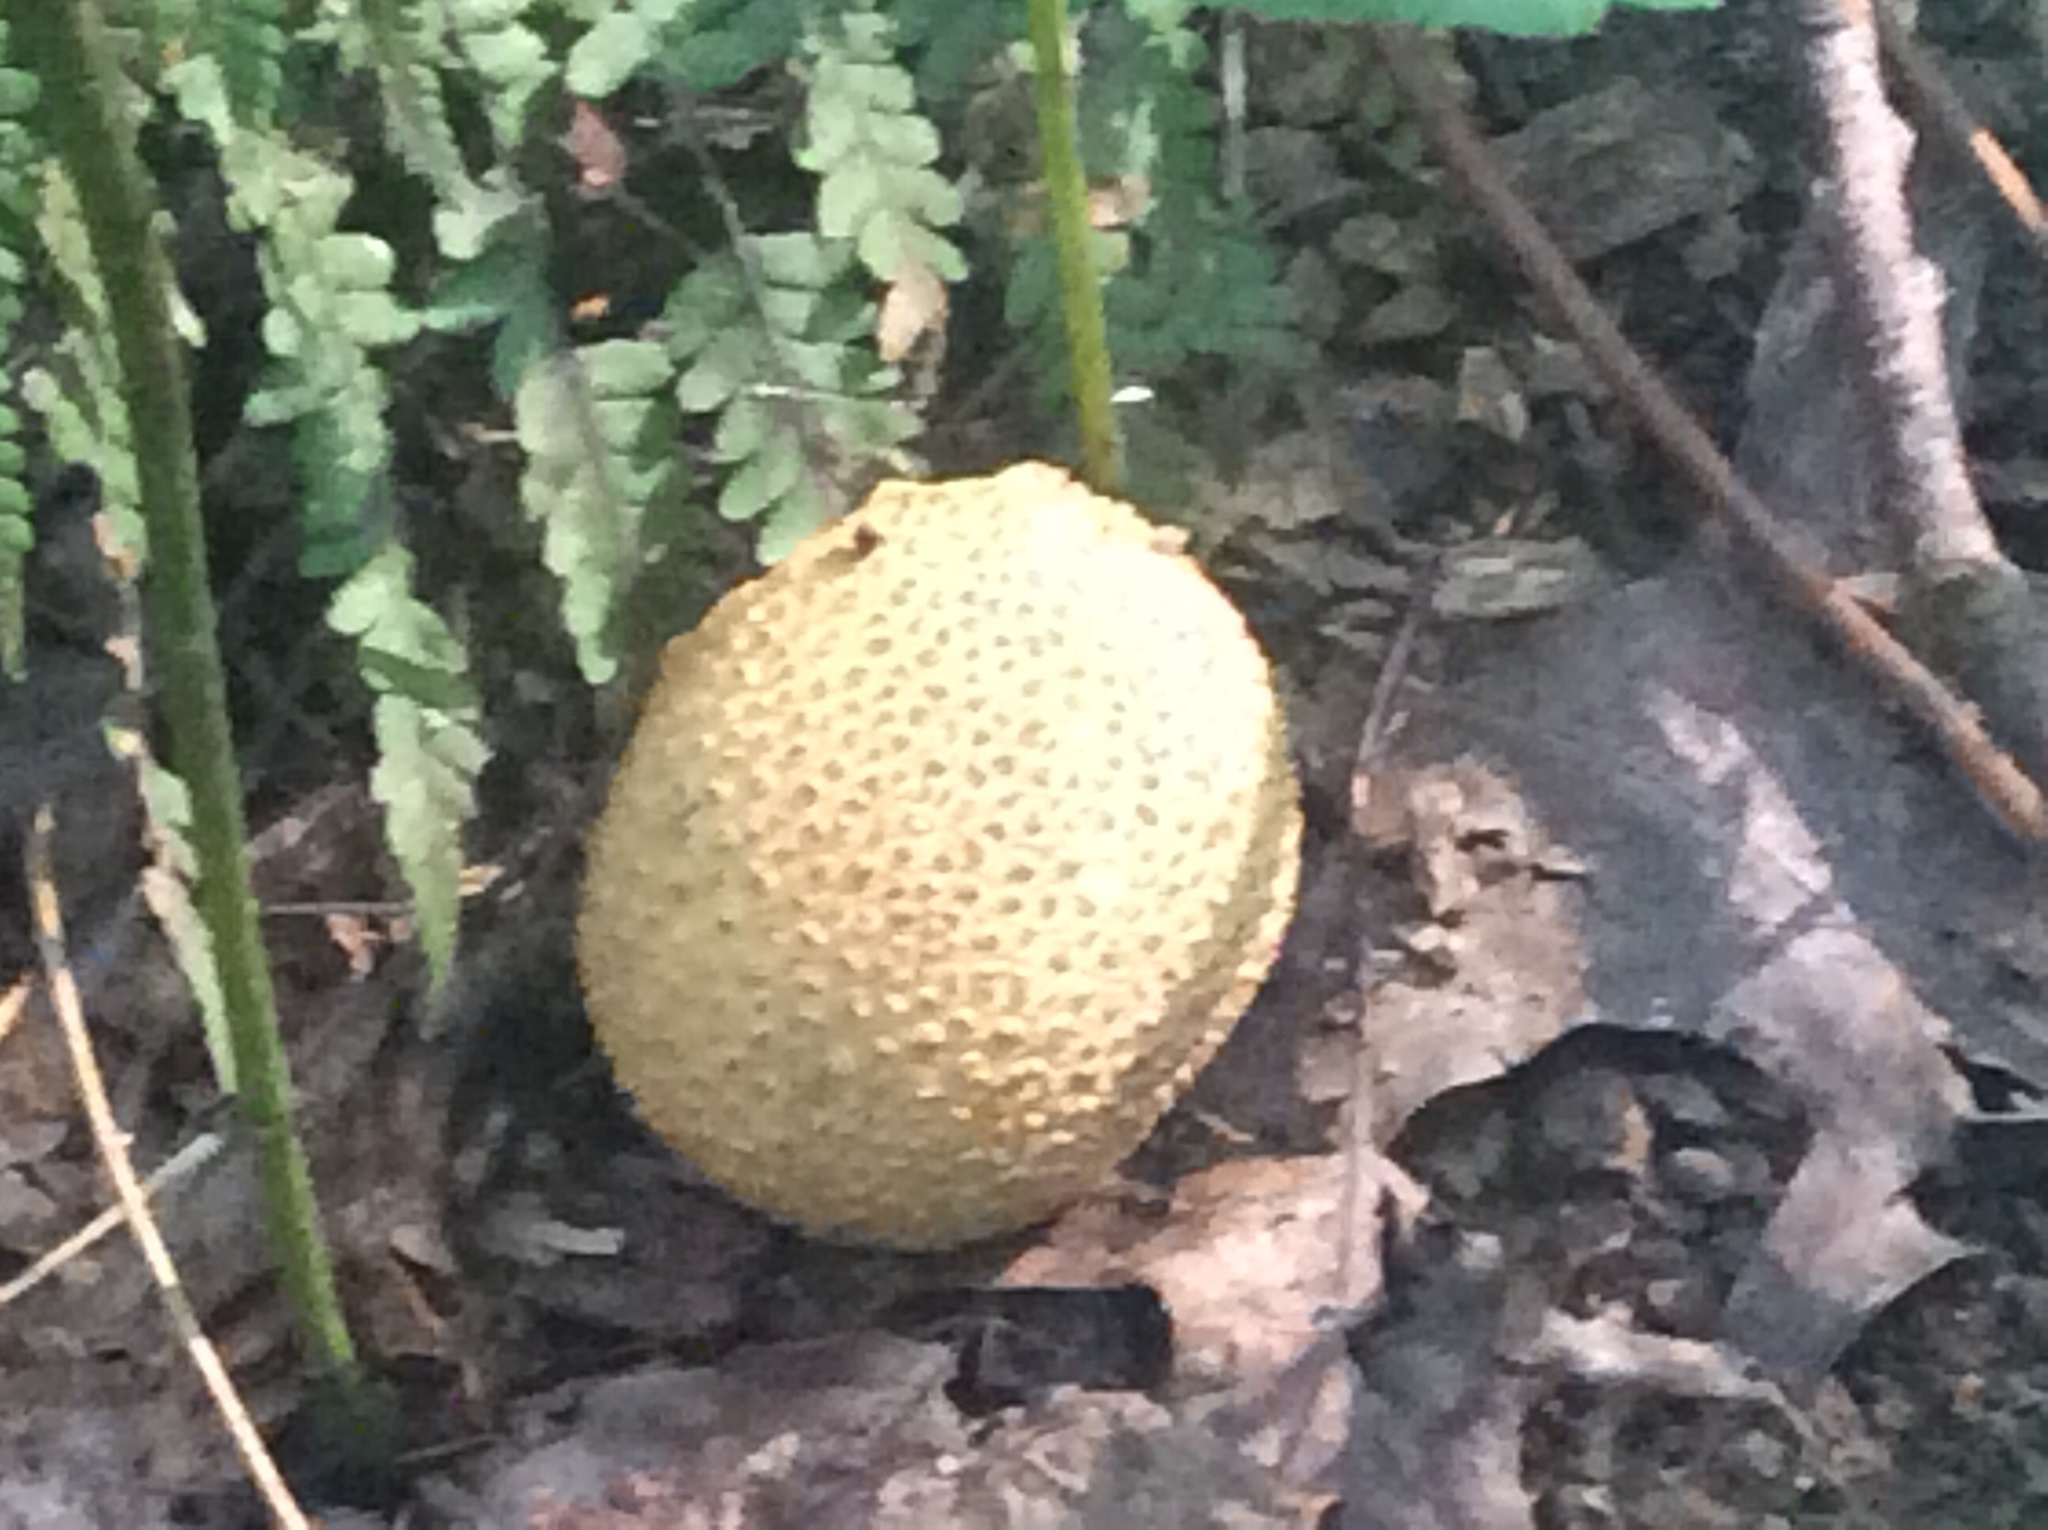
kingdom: Fungi
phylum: Basidiomycota
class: Agaricomycetes
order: Boletales
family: Sclerodermataceae
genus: Scleroderma
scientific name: Scleroderma citrinum
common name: Common earthball
